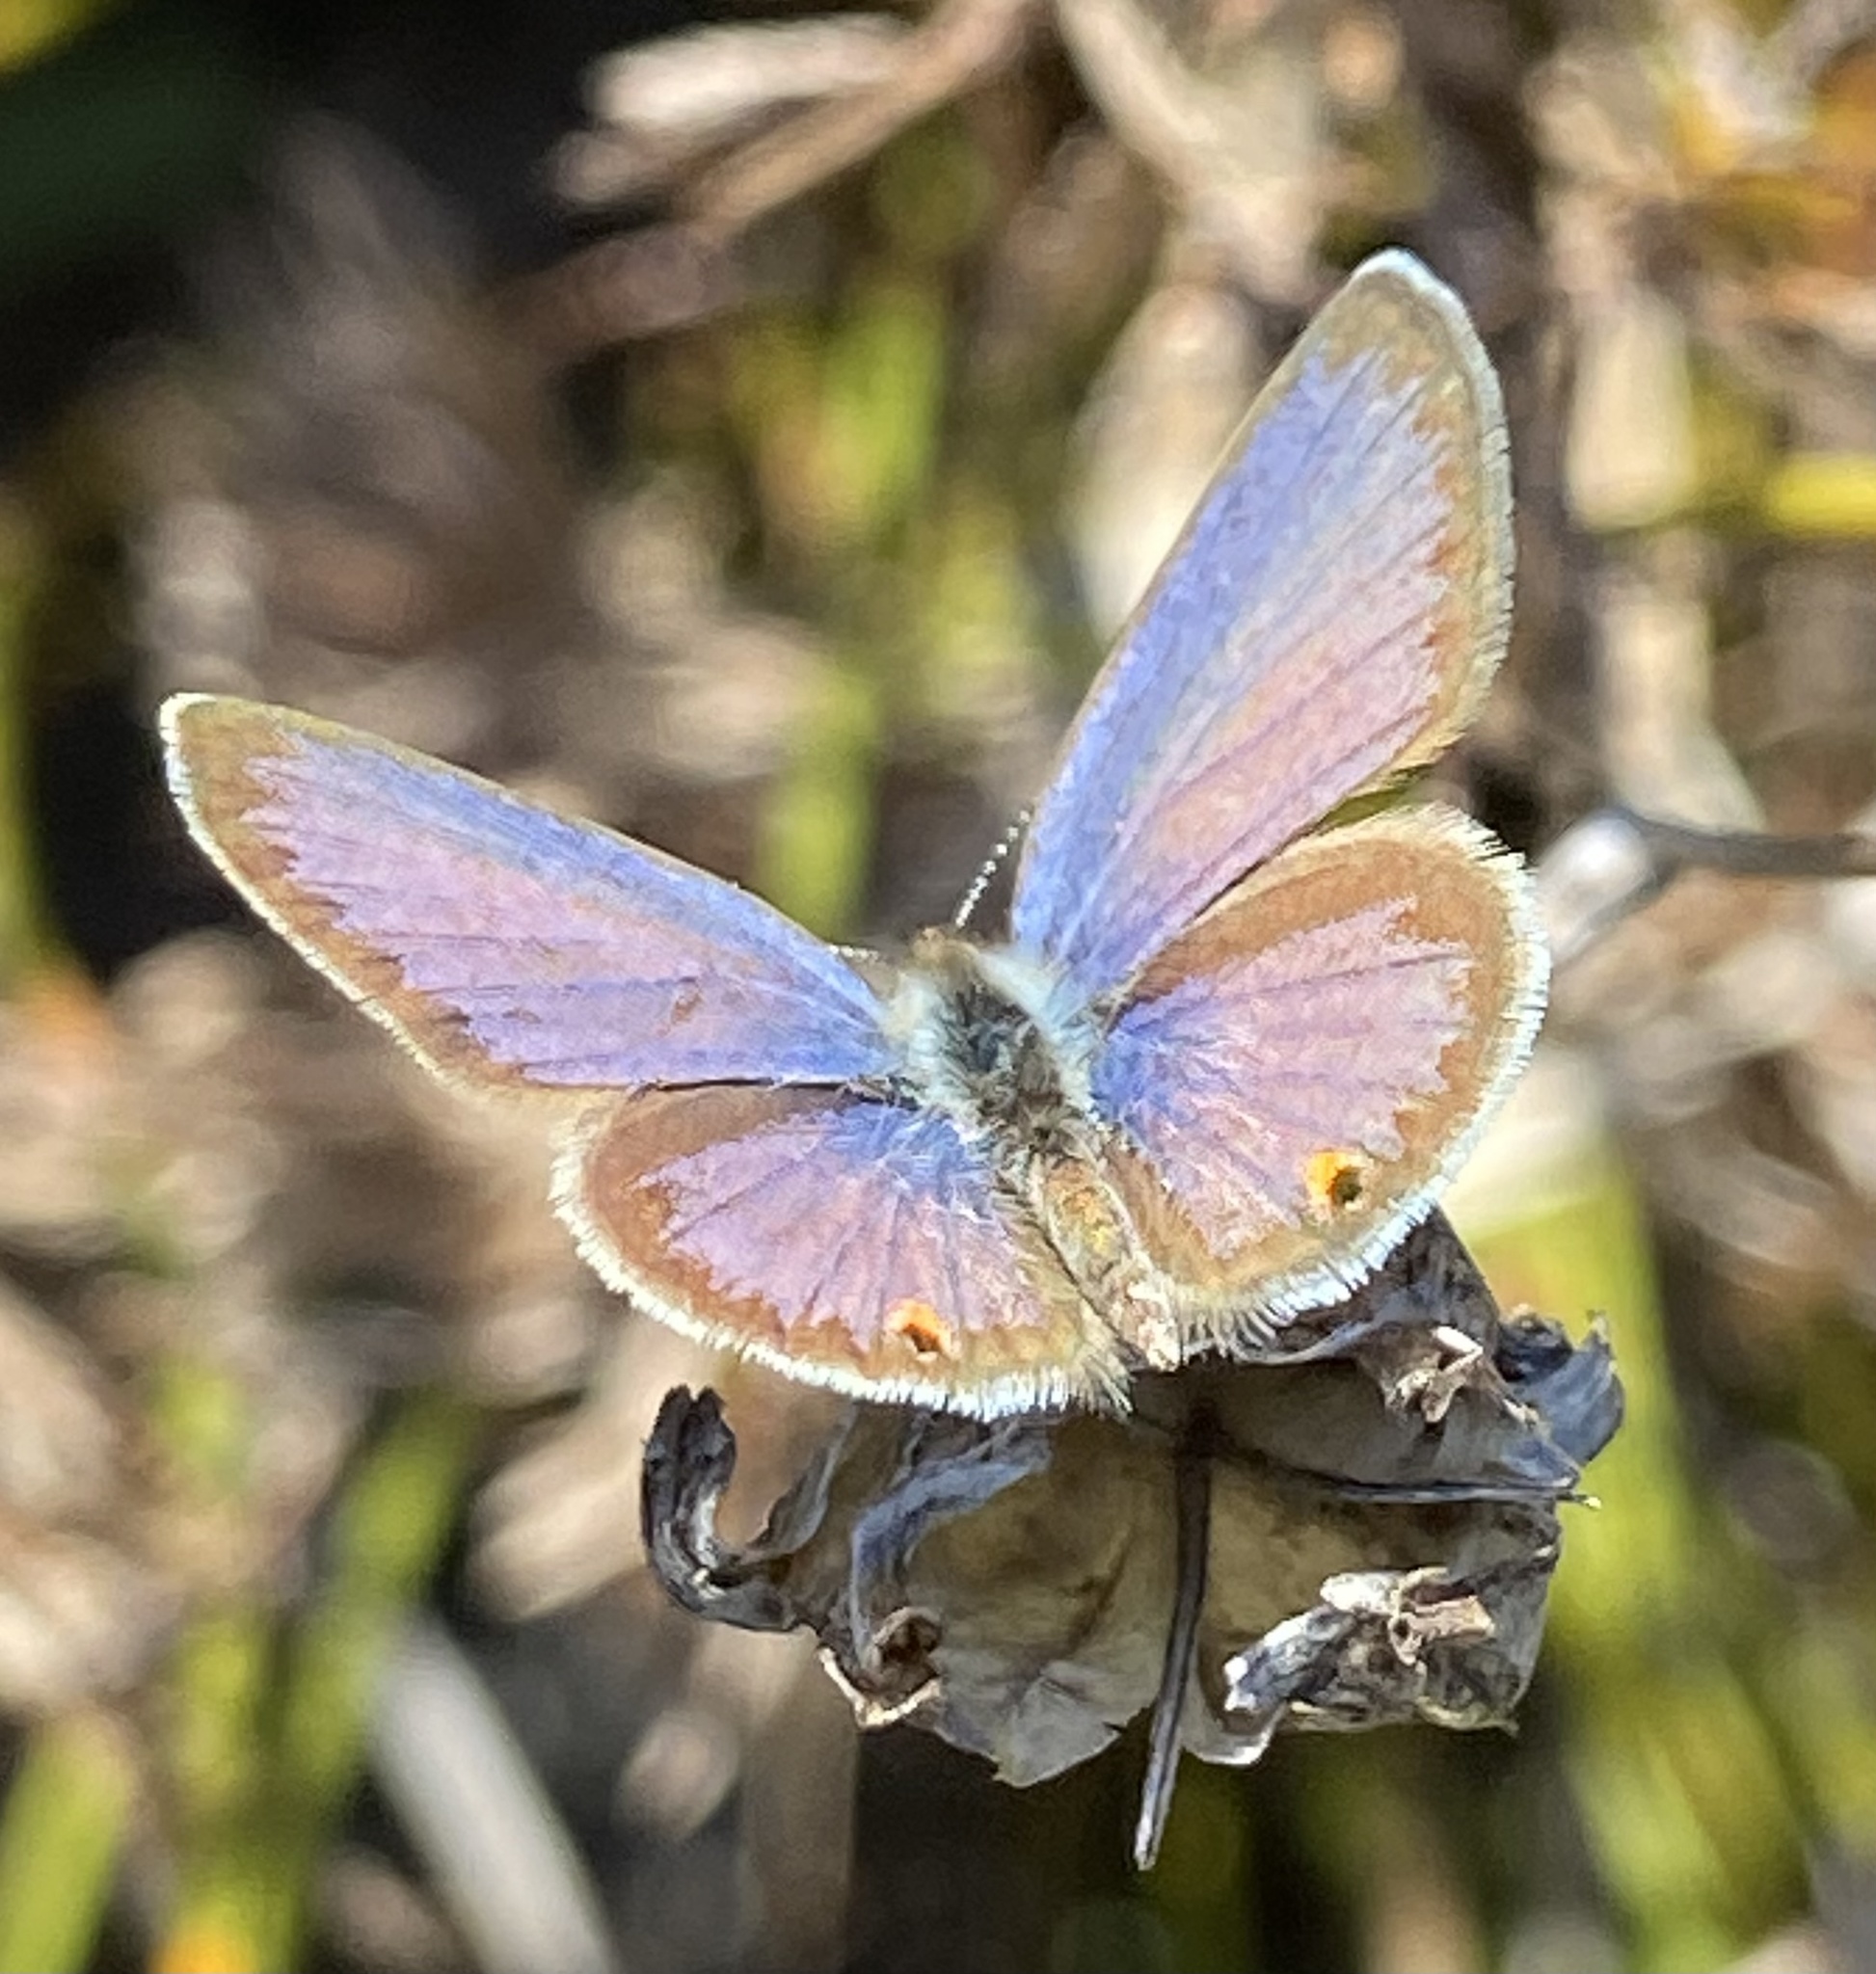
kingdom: Animalia
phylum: Arthropoda
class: Insecta
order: Lepidoptera
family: Lycaenidae
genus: Eicochrysops
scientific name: Eicochrysops messapus
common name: Cupreous blue
